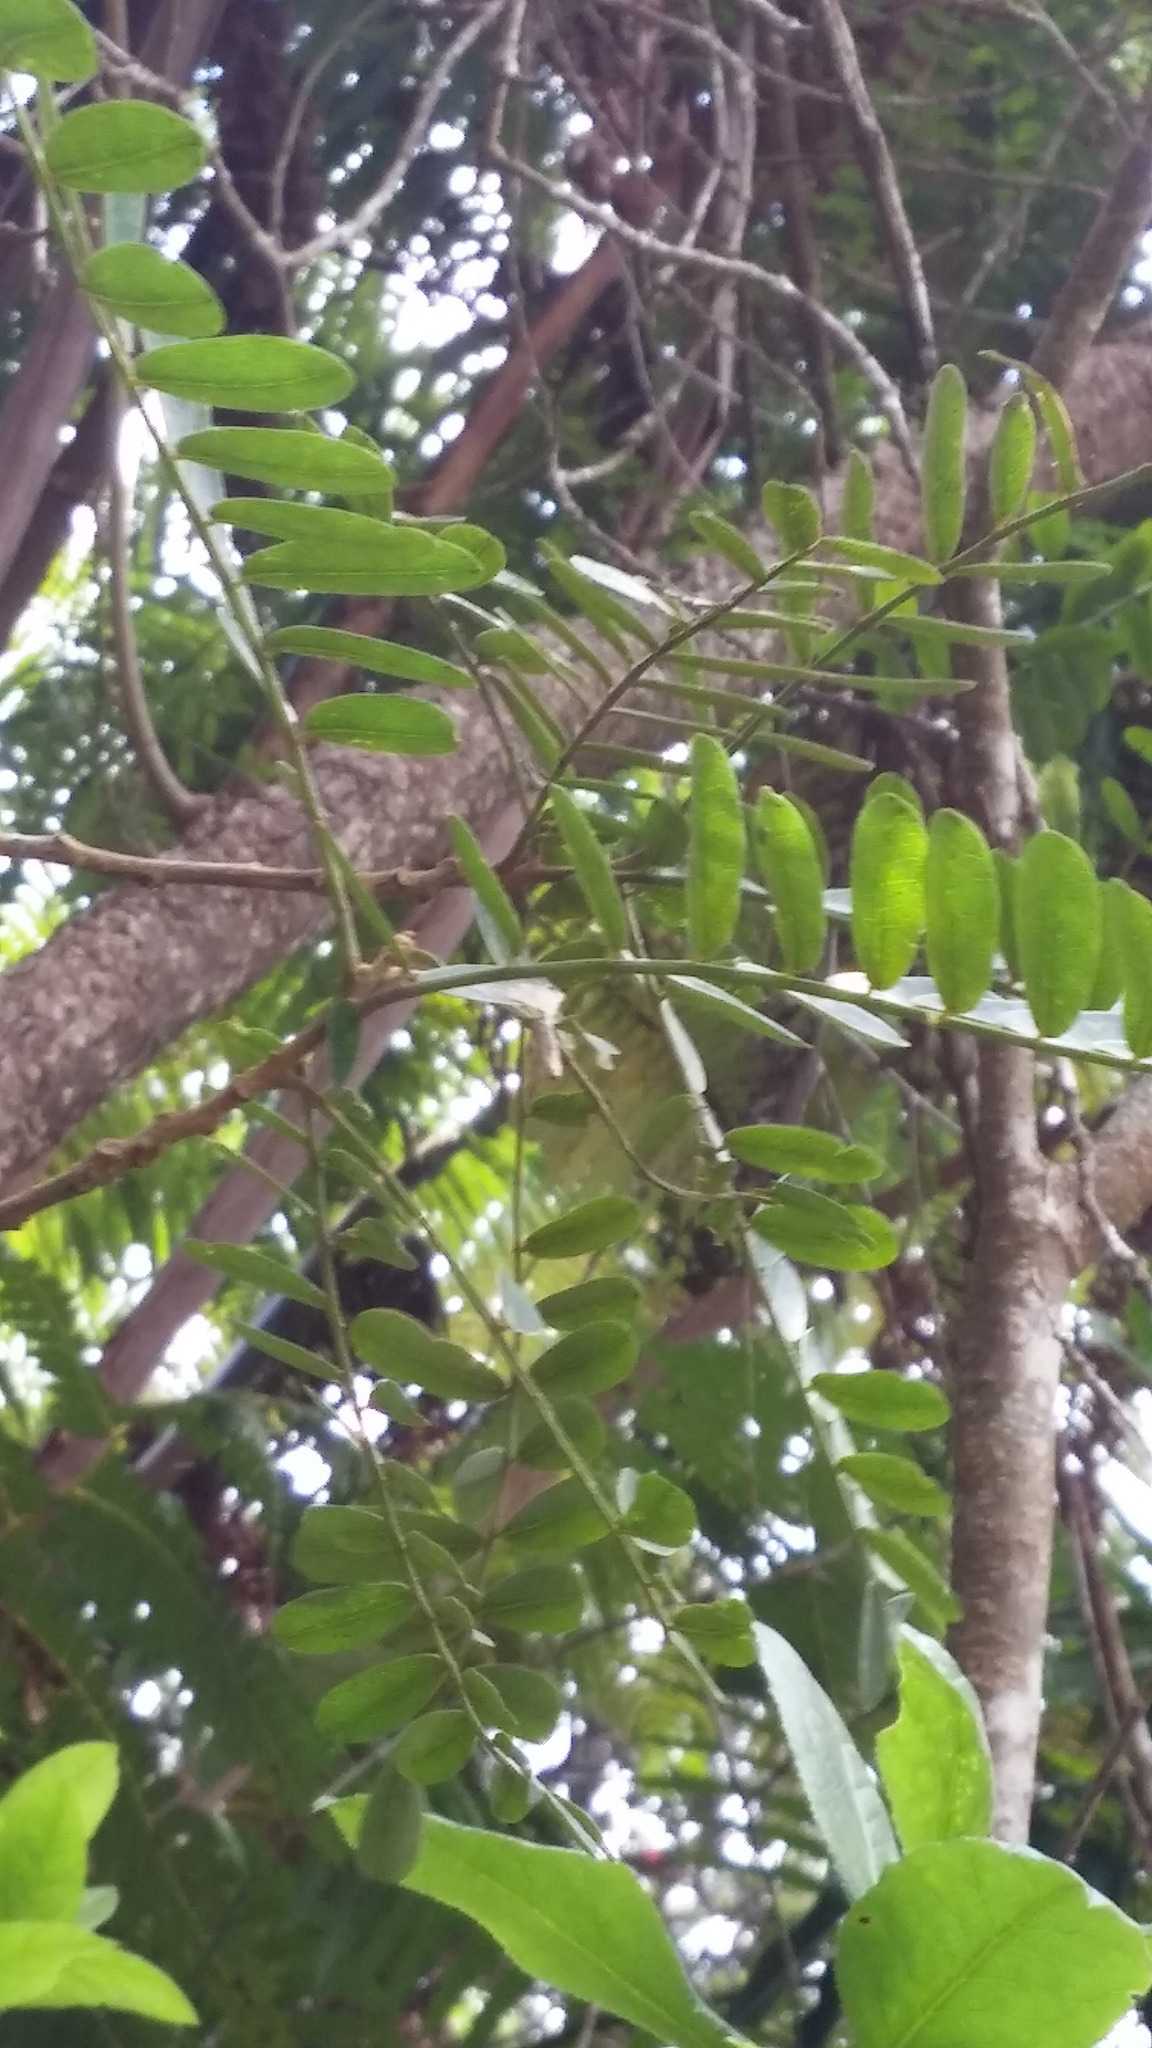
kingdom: Plantae
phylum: Tracheophyta
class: Magnoliopsida
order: Fabales
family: Fabaceae
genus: Sophora
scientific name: Sophora chrysophylla
